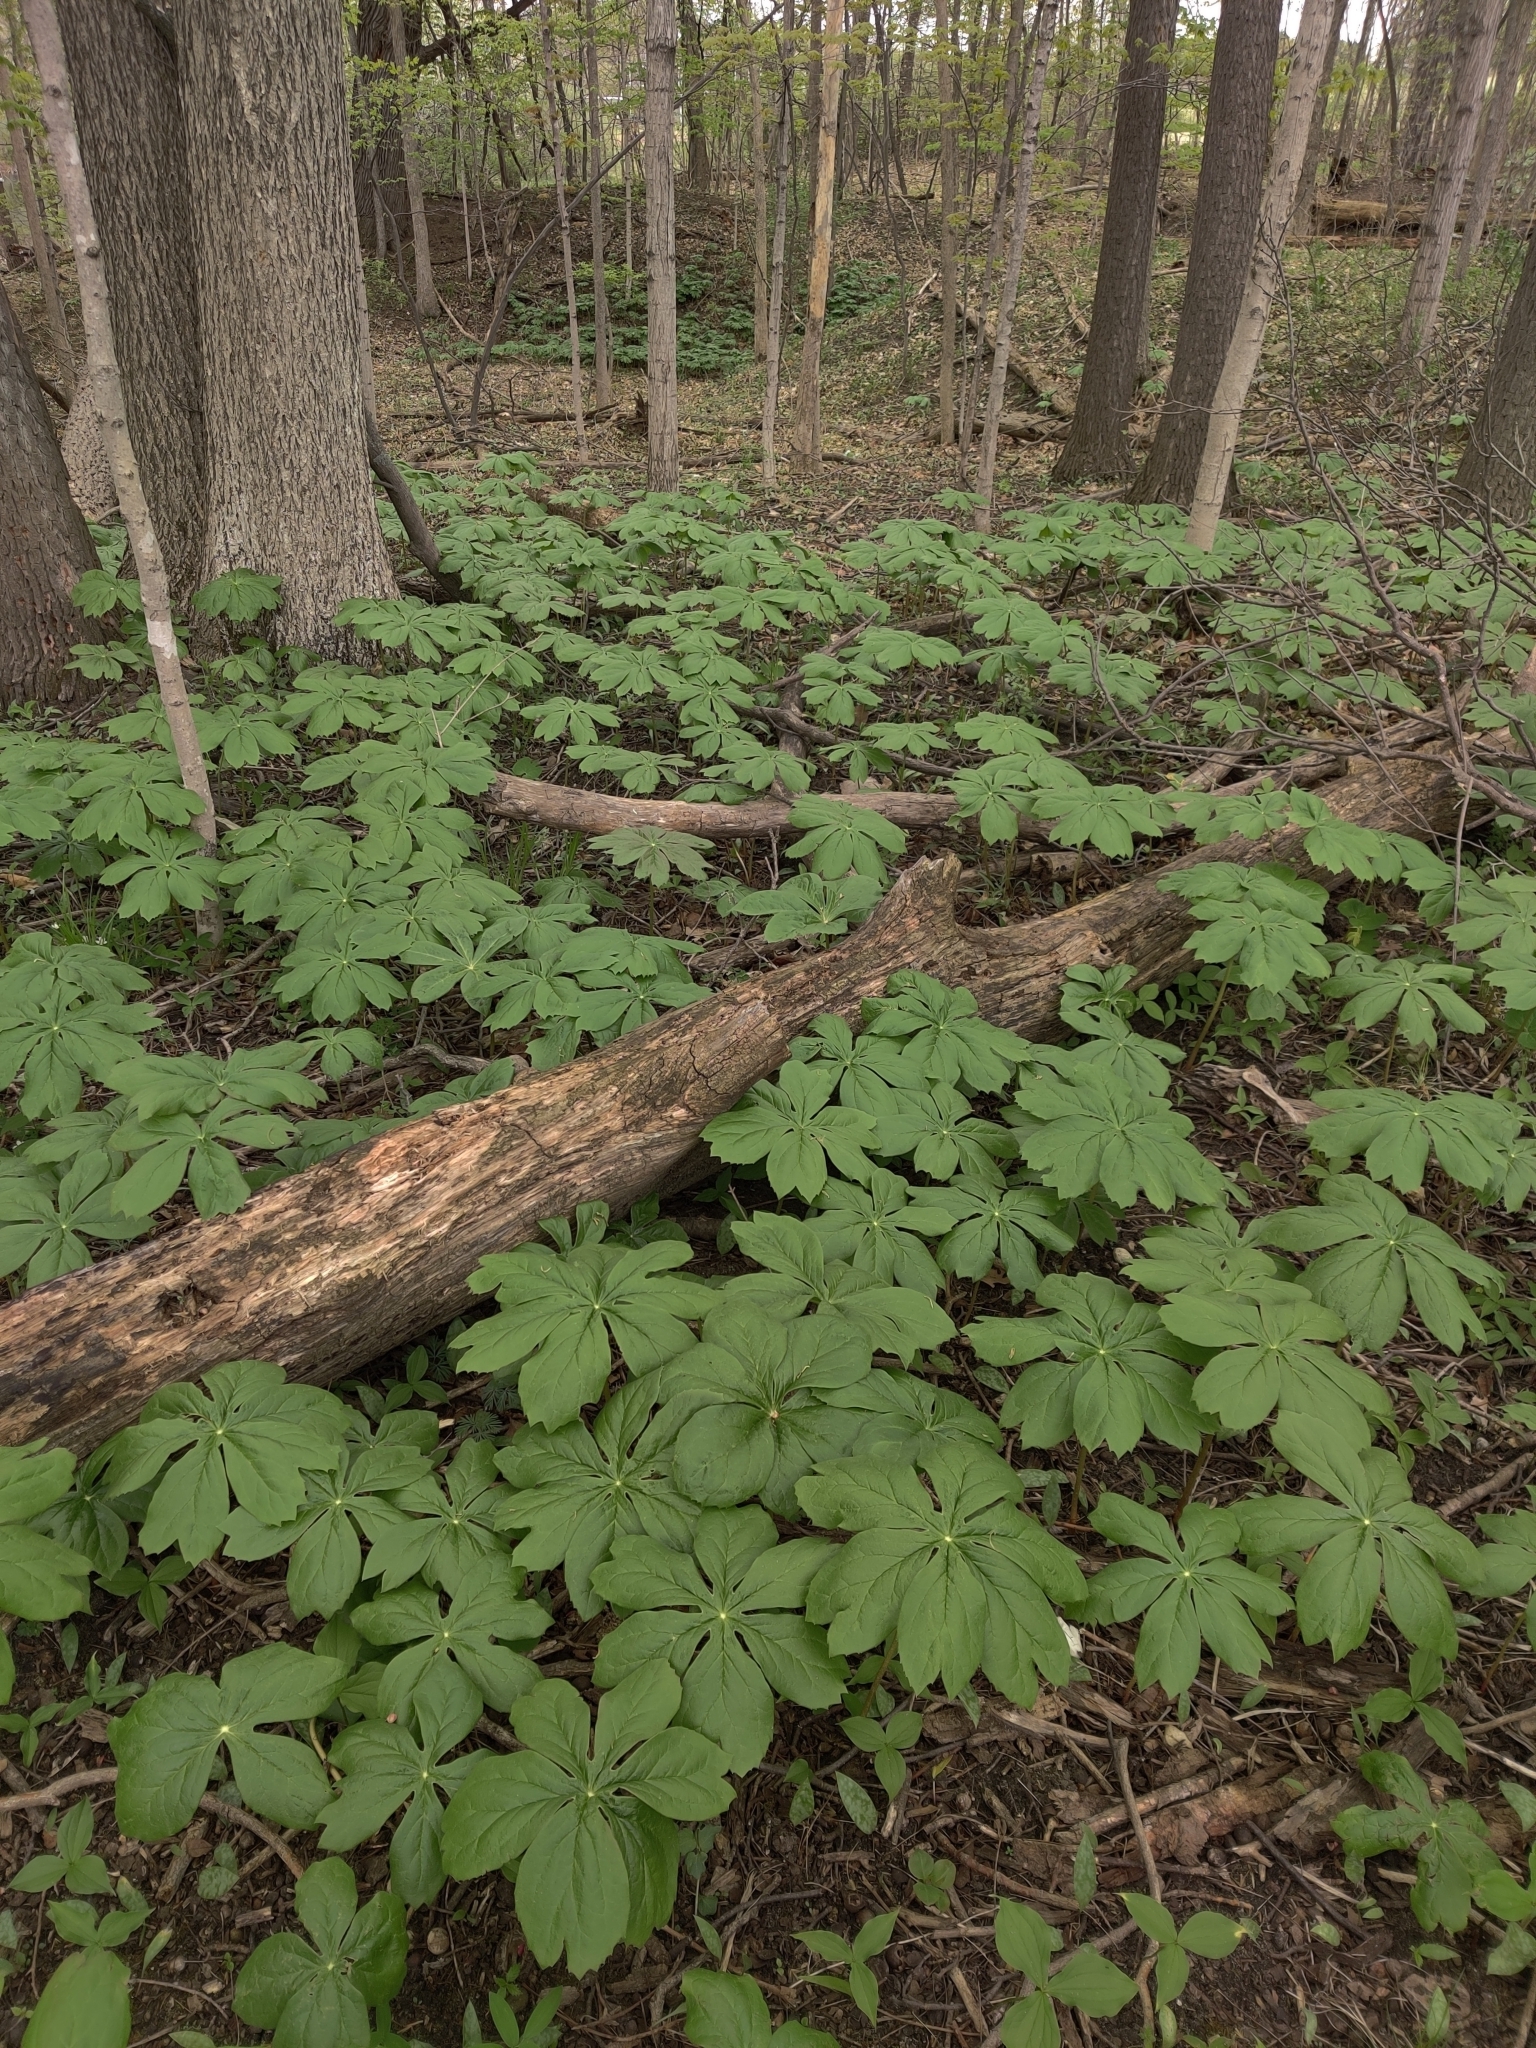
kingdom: Plantae
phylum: Tracheophyta
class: Magnoliopsida
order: Ranunculales
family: Berberidaceae
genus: Podophyllum
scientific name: Podophyllum peltatum
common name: Wild mandrake
